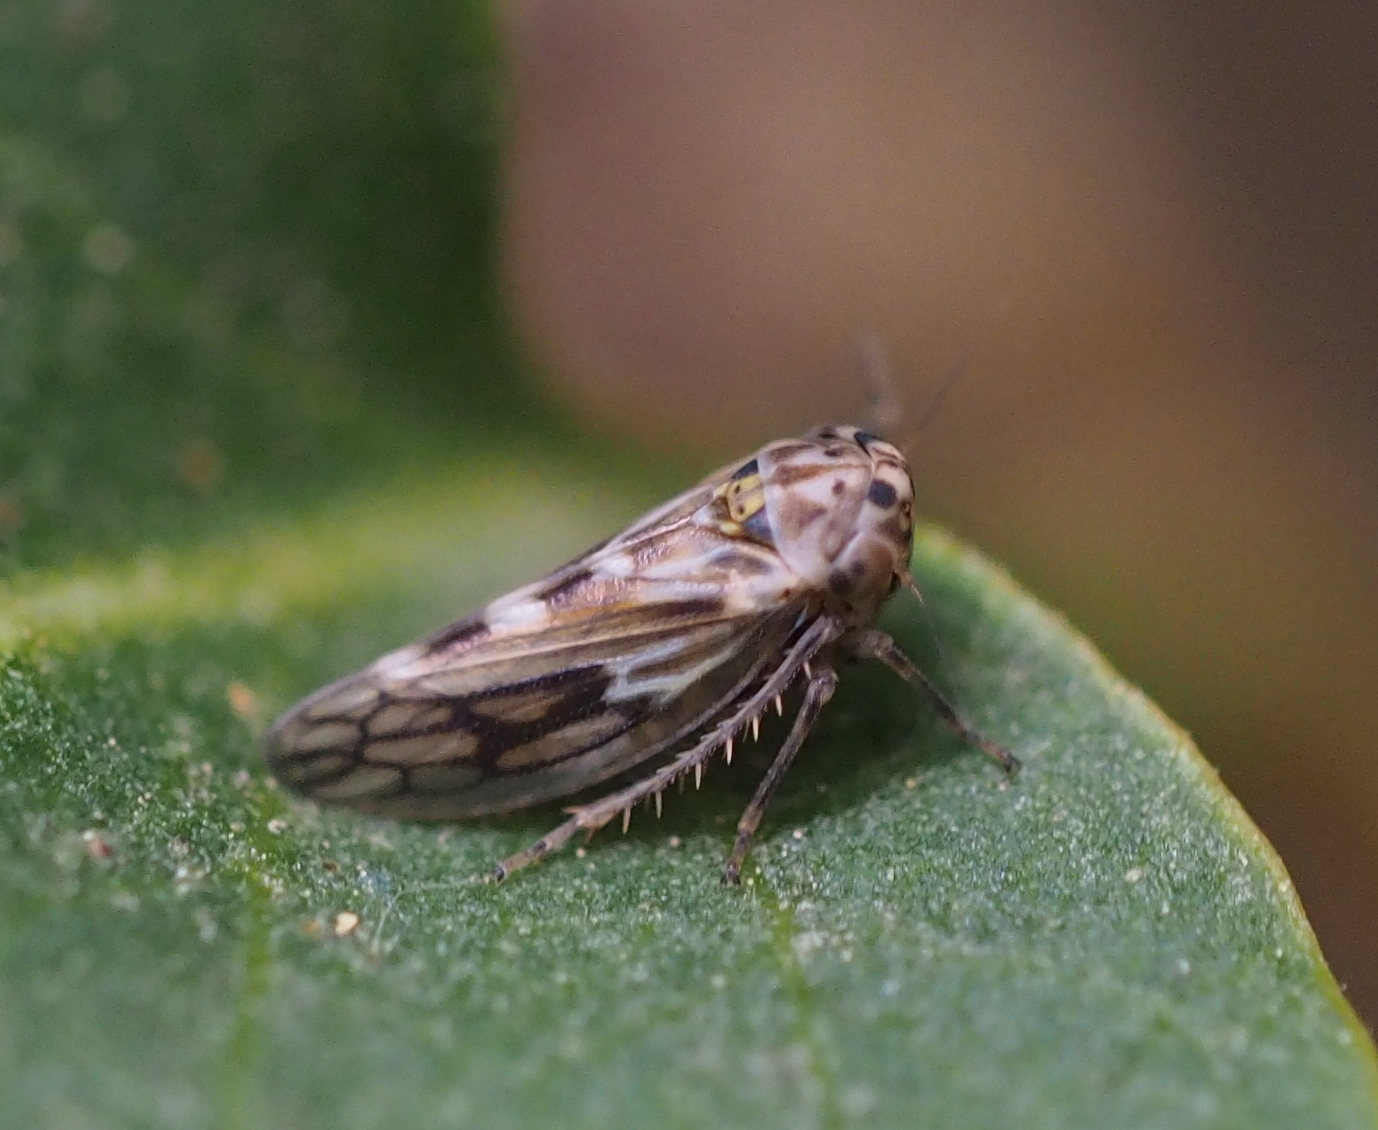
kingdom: Animalia
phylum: Arthropoda
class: Insecta
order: Hemiptera
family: Cicadellidae
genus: Agallia
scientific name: Agallia consobrina
